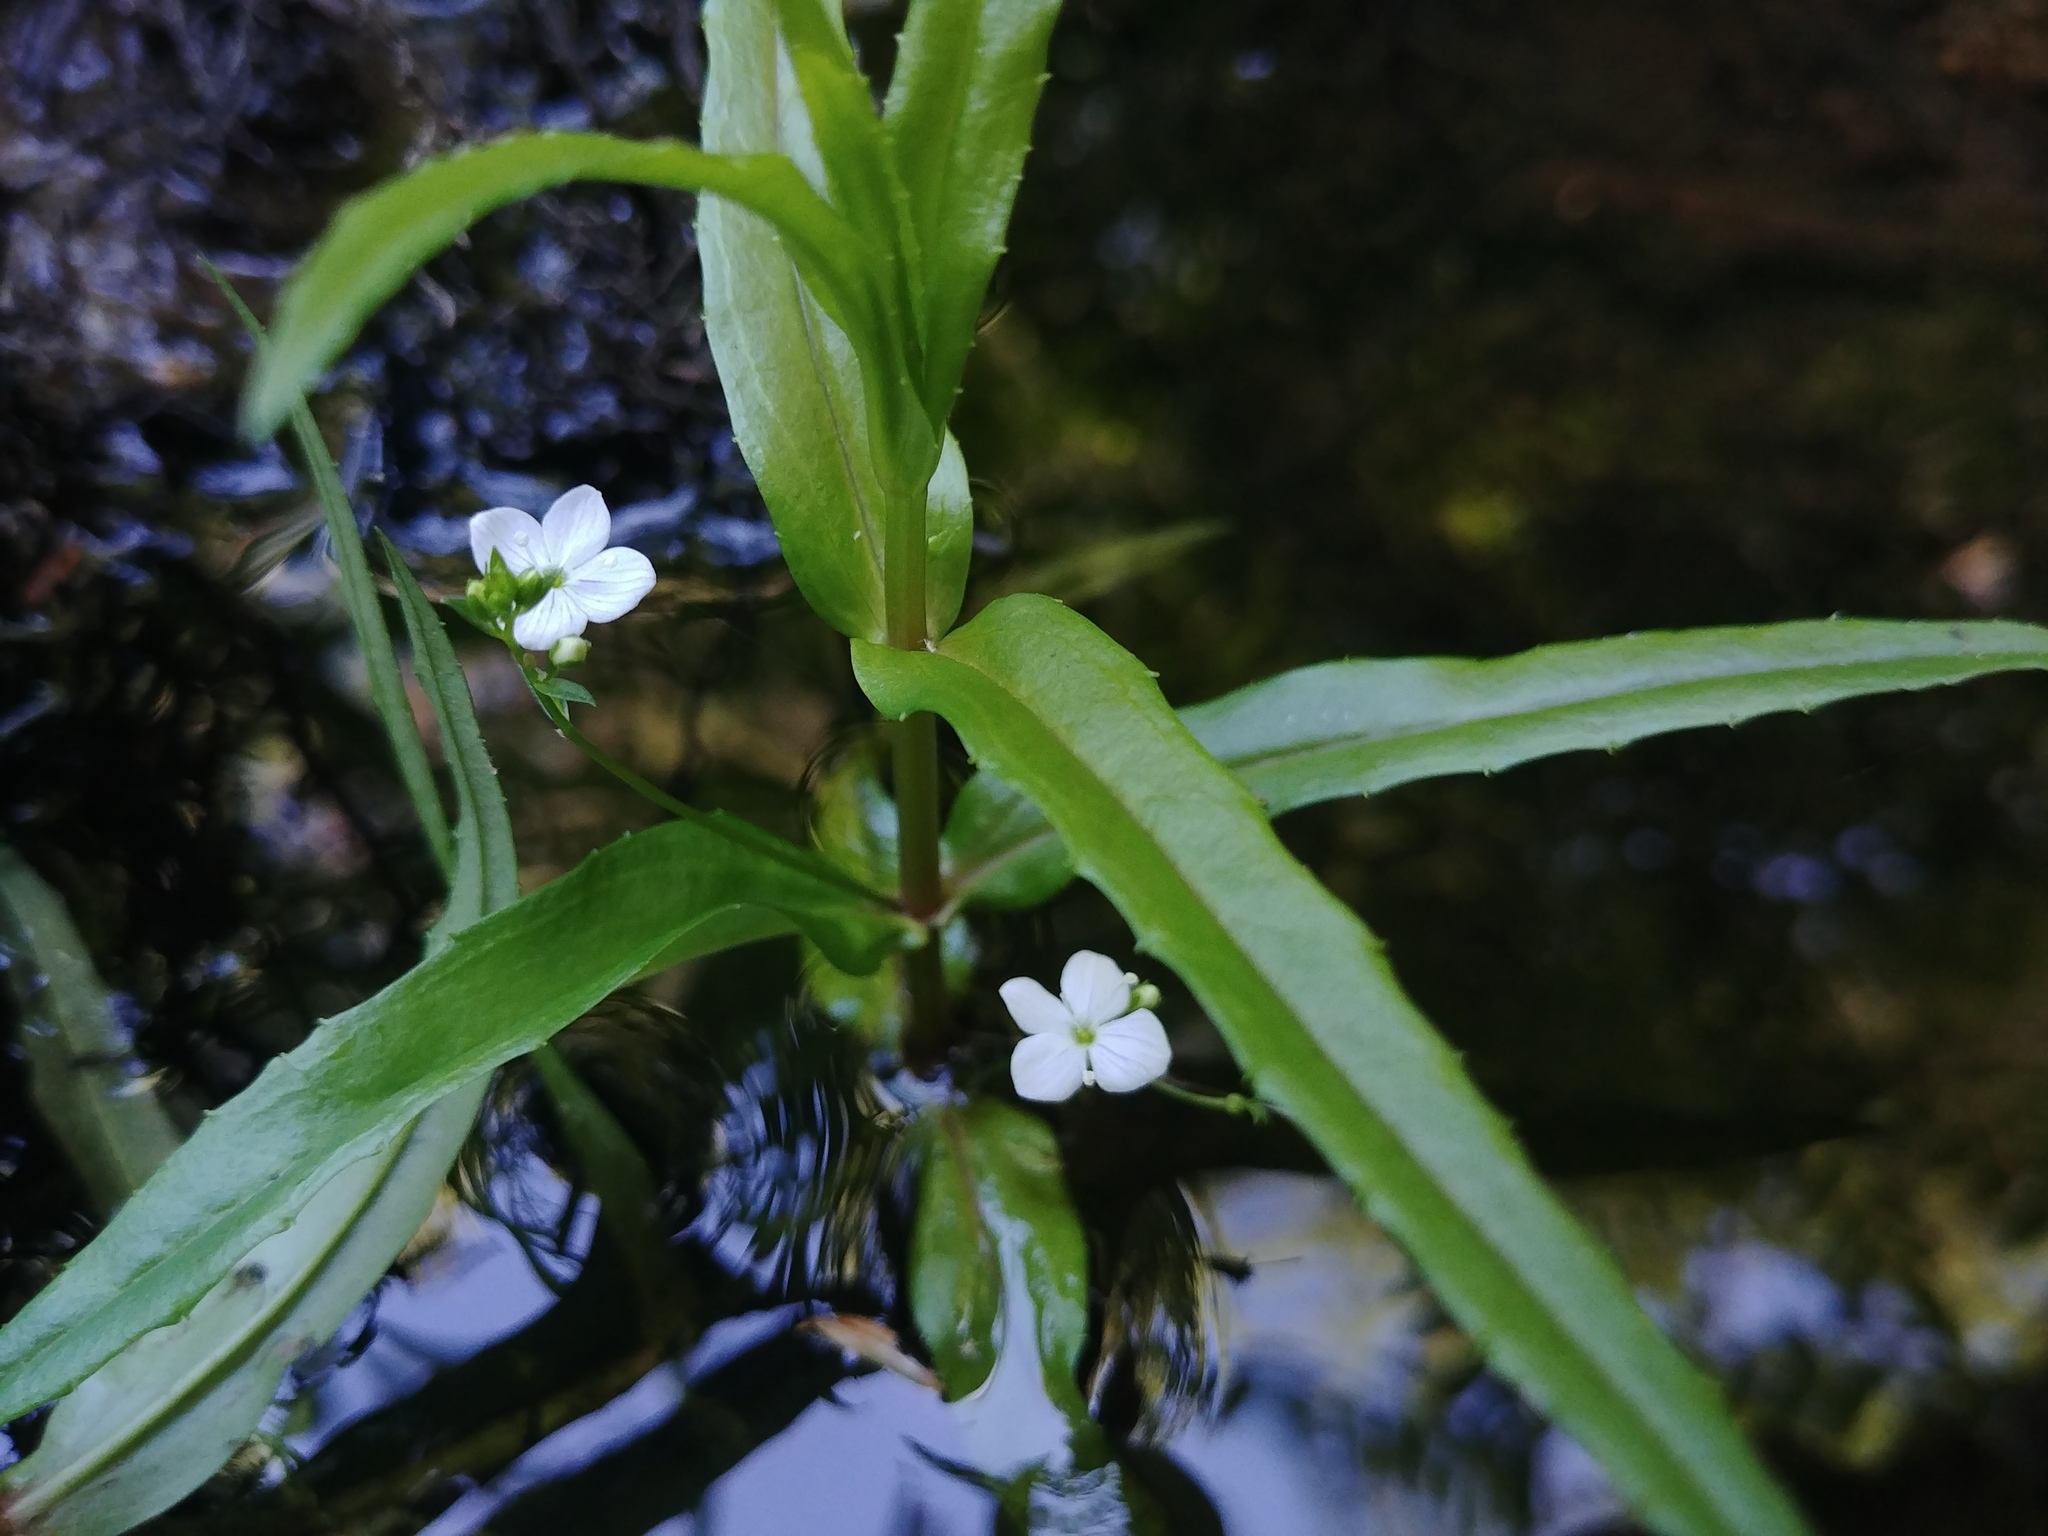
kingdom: Plantae
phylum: Tracheophyta
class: Magnoliopsida
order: Lamiales
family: Plantaginaceae
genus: Veronica
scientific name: Veronica scutellata
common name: Marsh speedwell
